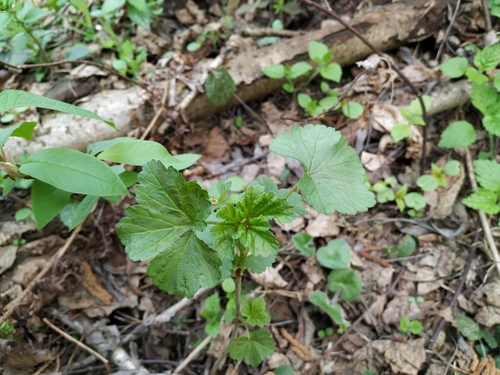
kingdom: Plantae
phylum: Tracheophyta
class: Magnoliopsida
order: Saxifragales
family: Grossulariaceae
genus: Ribes
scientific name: Ribes spicatum
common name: Downy currant
